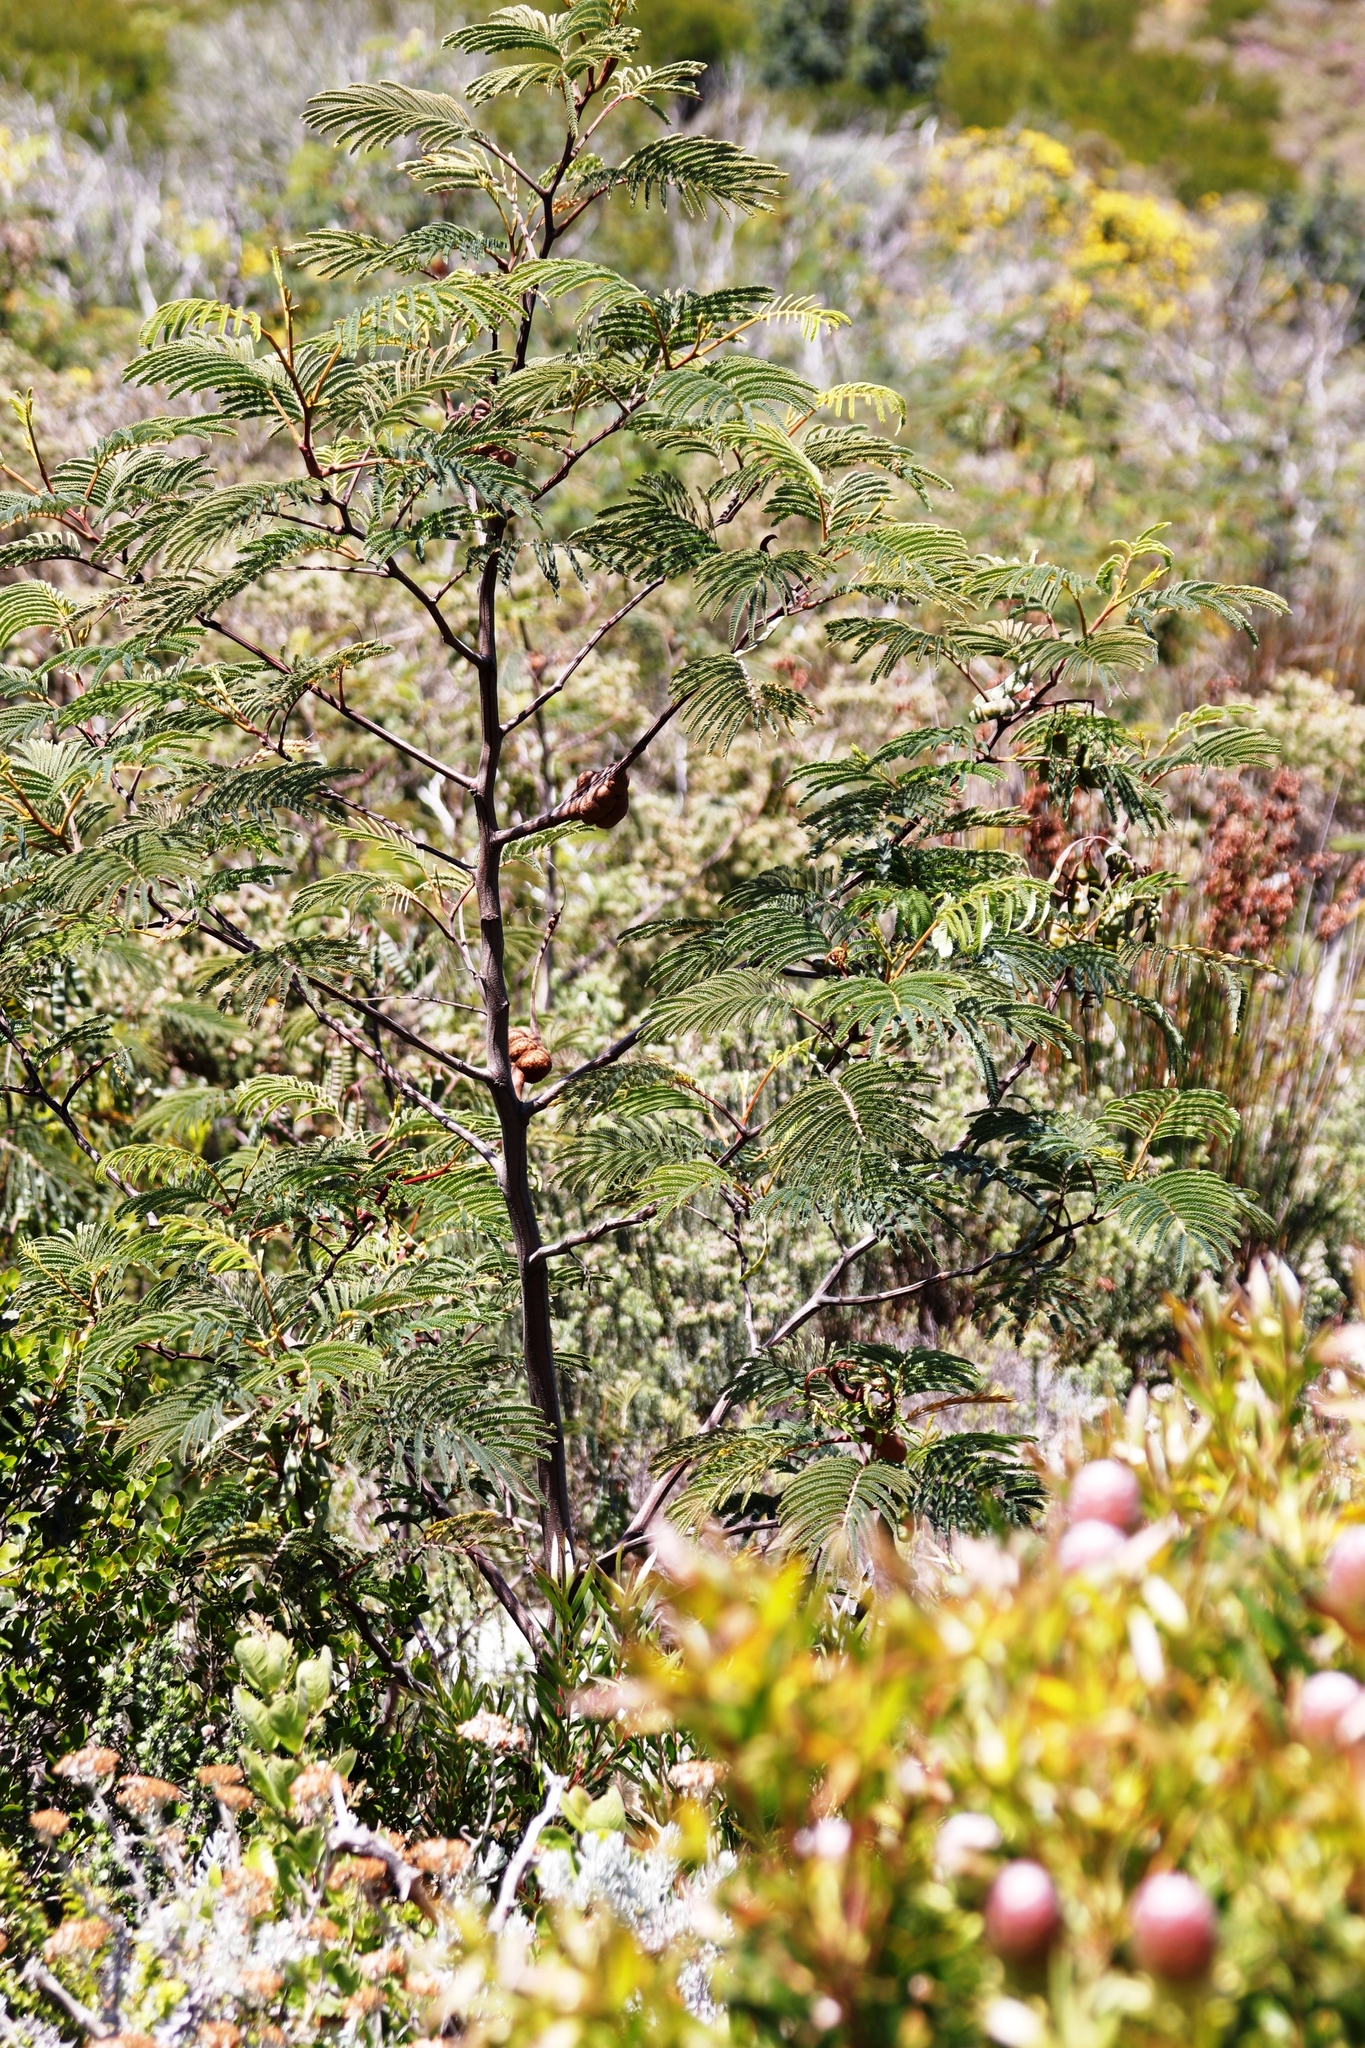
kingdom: Fungi
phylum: Basidiomycota
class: Pucciniomycetes
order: Pucciniales
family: Uromycladiaceae
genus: Uromycladium
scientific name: Uromycladium woodii
